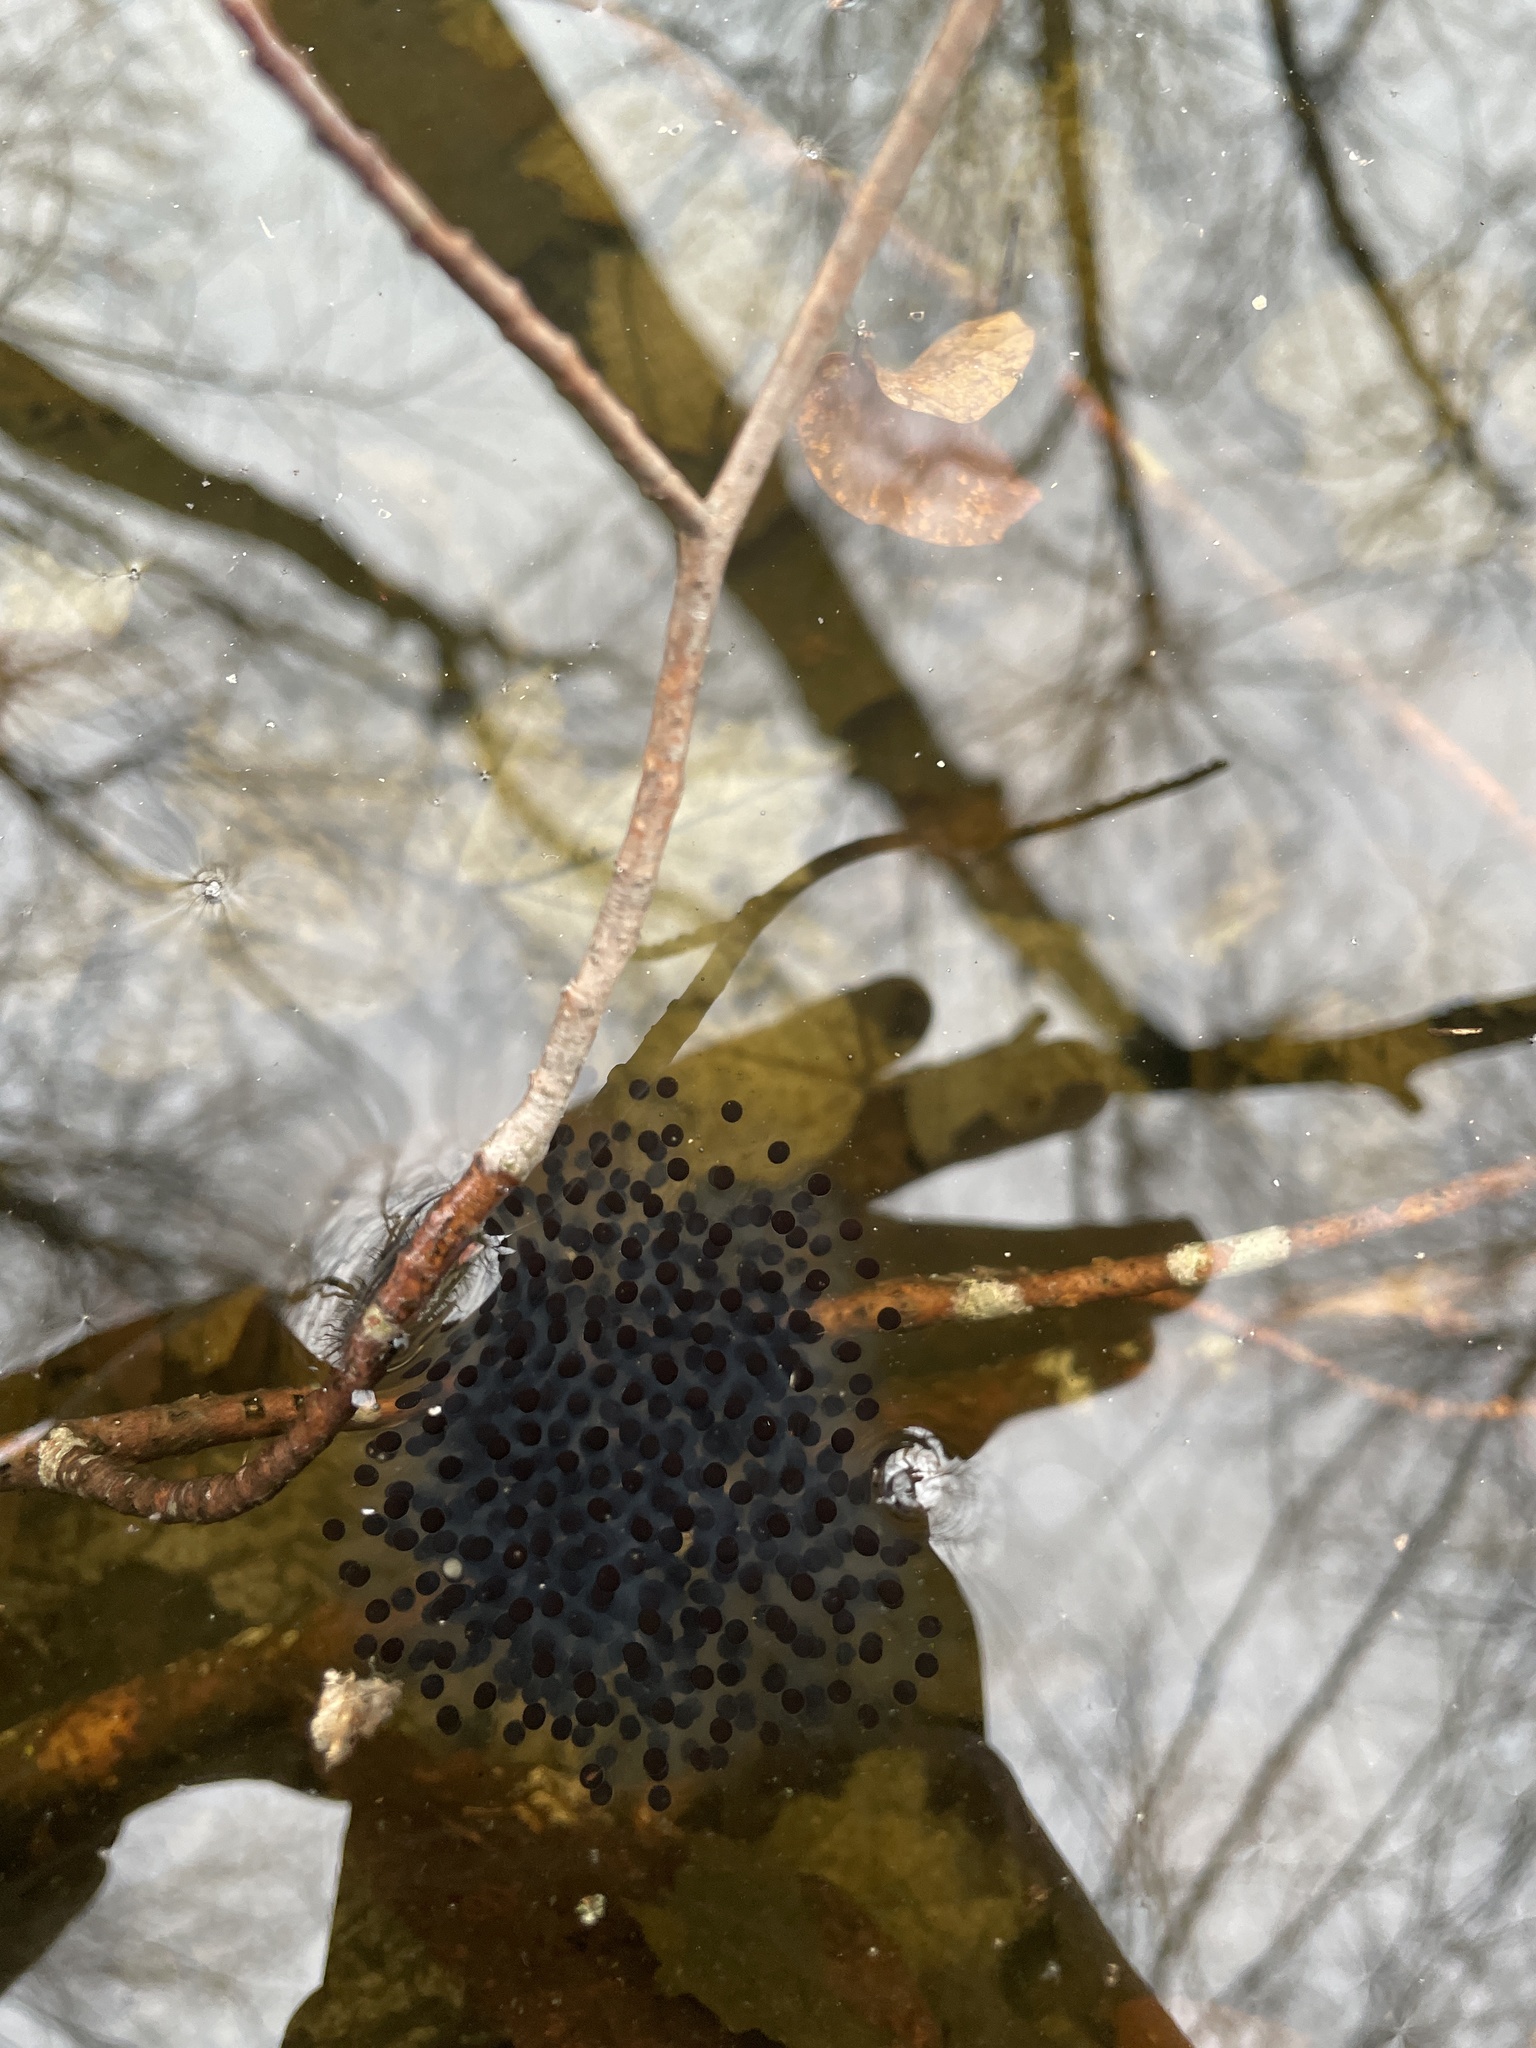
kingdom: Animalia
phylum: Chordata
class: Amphibia
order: Anura
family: Ranidae
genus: Lithobates
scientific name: Lithobates sylvaticus
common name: Wood frog
